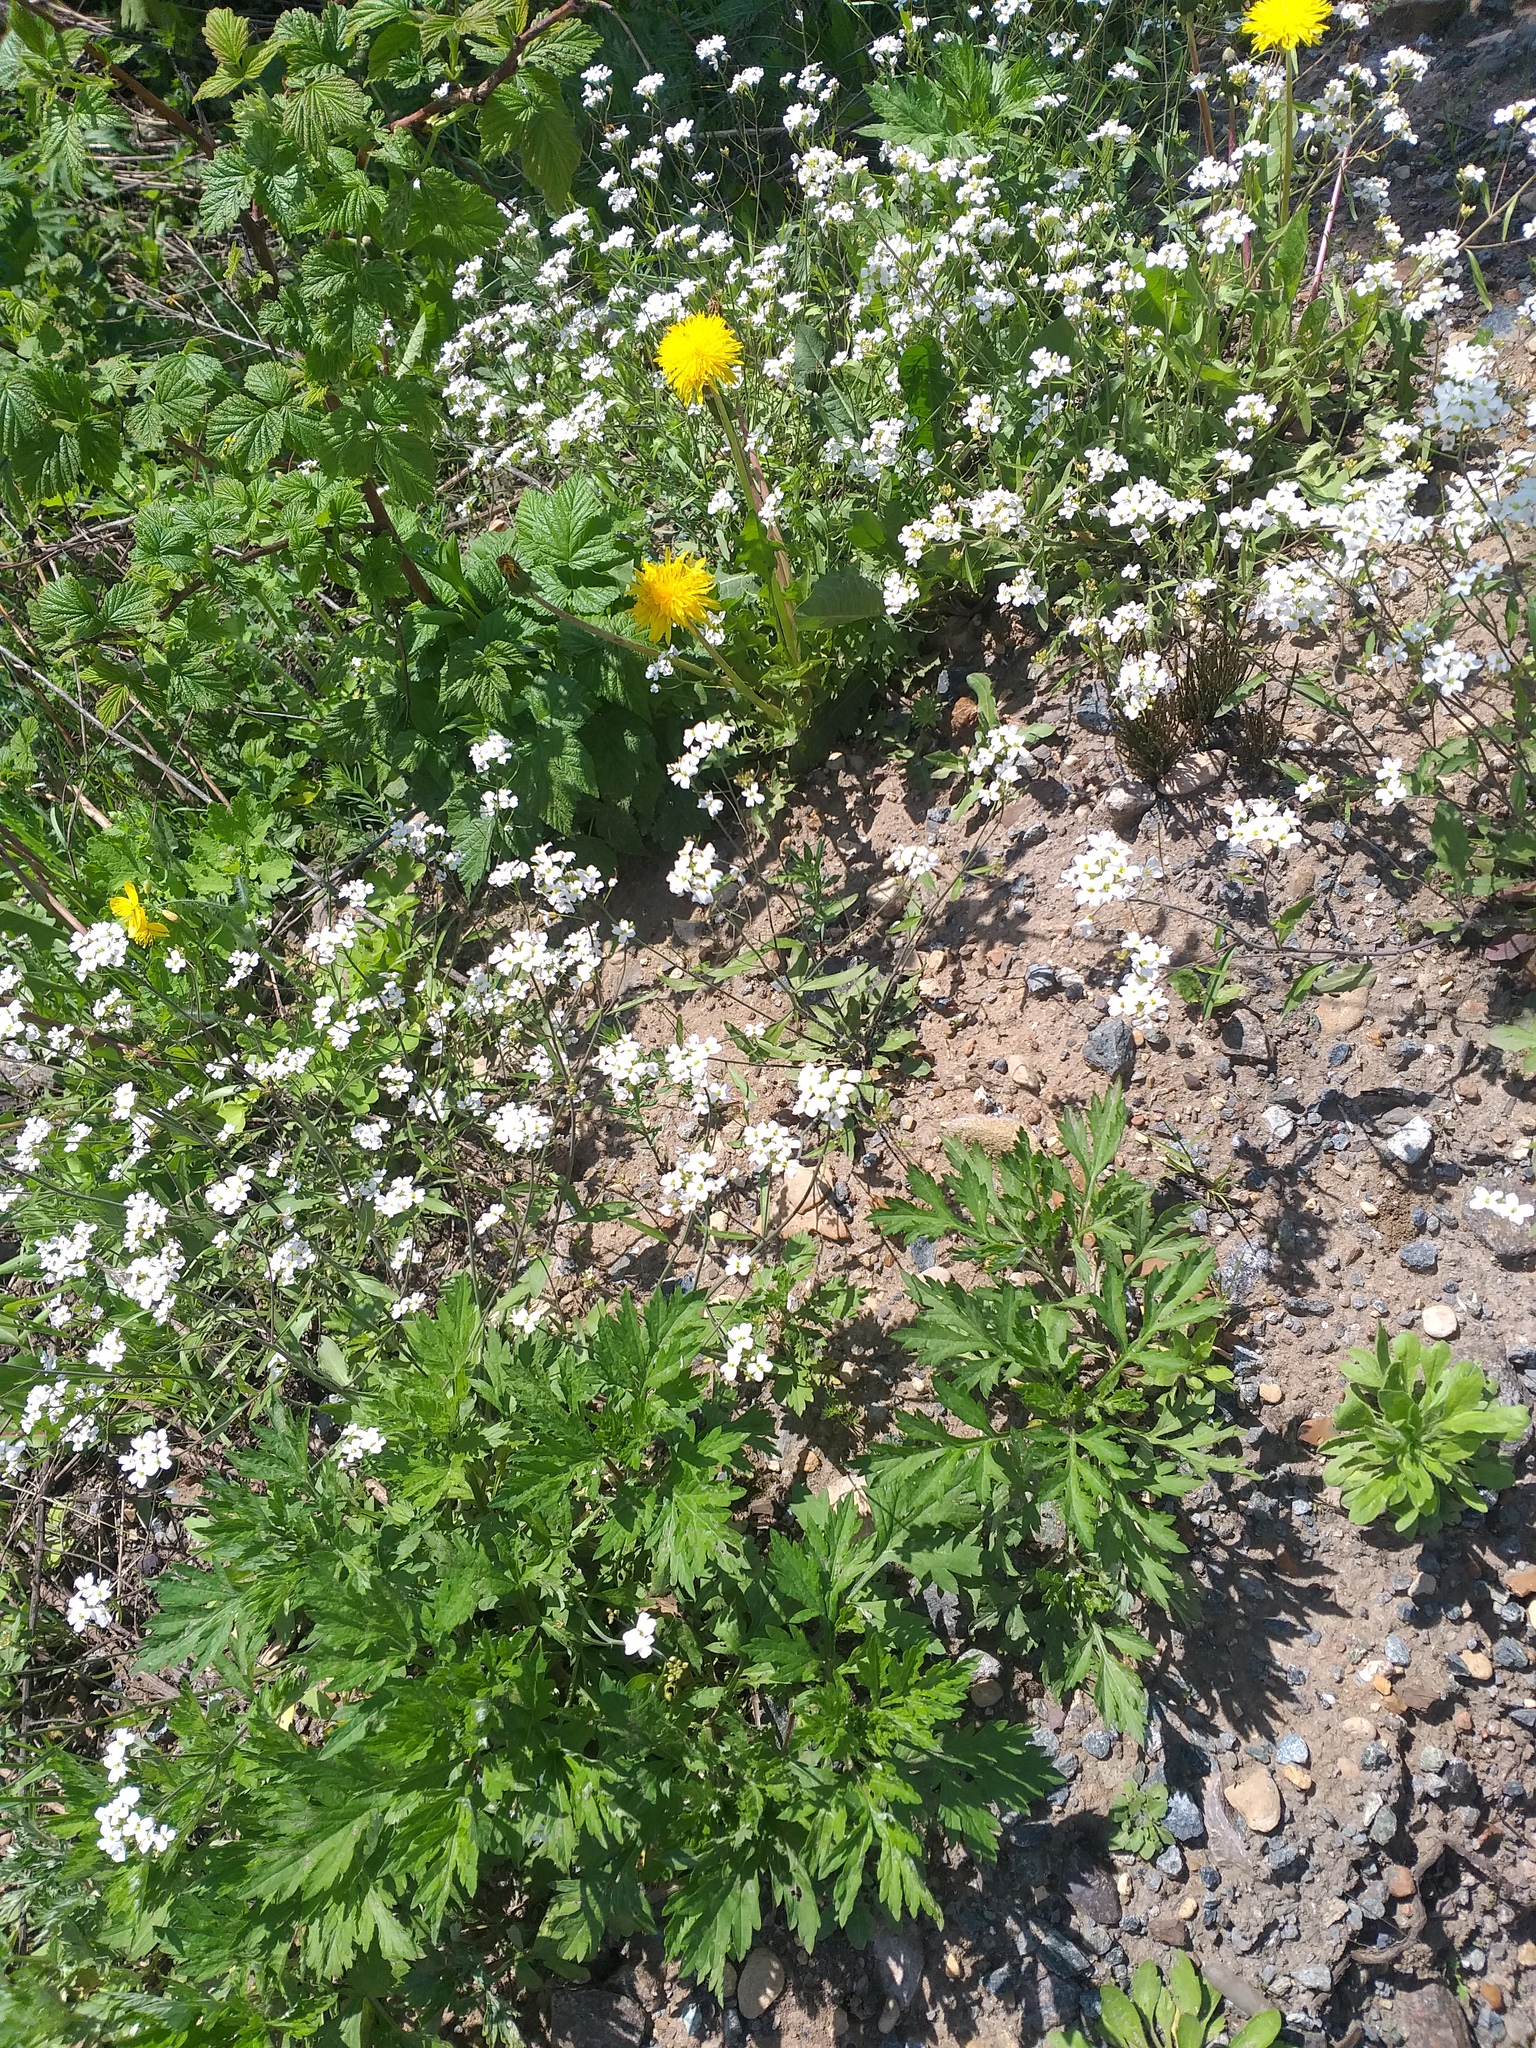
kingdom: Plantae
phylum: Tracheophyta
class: Magnoliopsida
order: Brassicales
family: Brassicaceae
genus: Arabidopsis
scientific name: Arabidopsis arenosa
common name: Sand rock-cress
